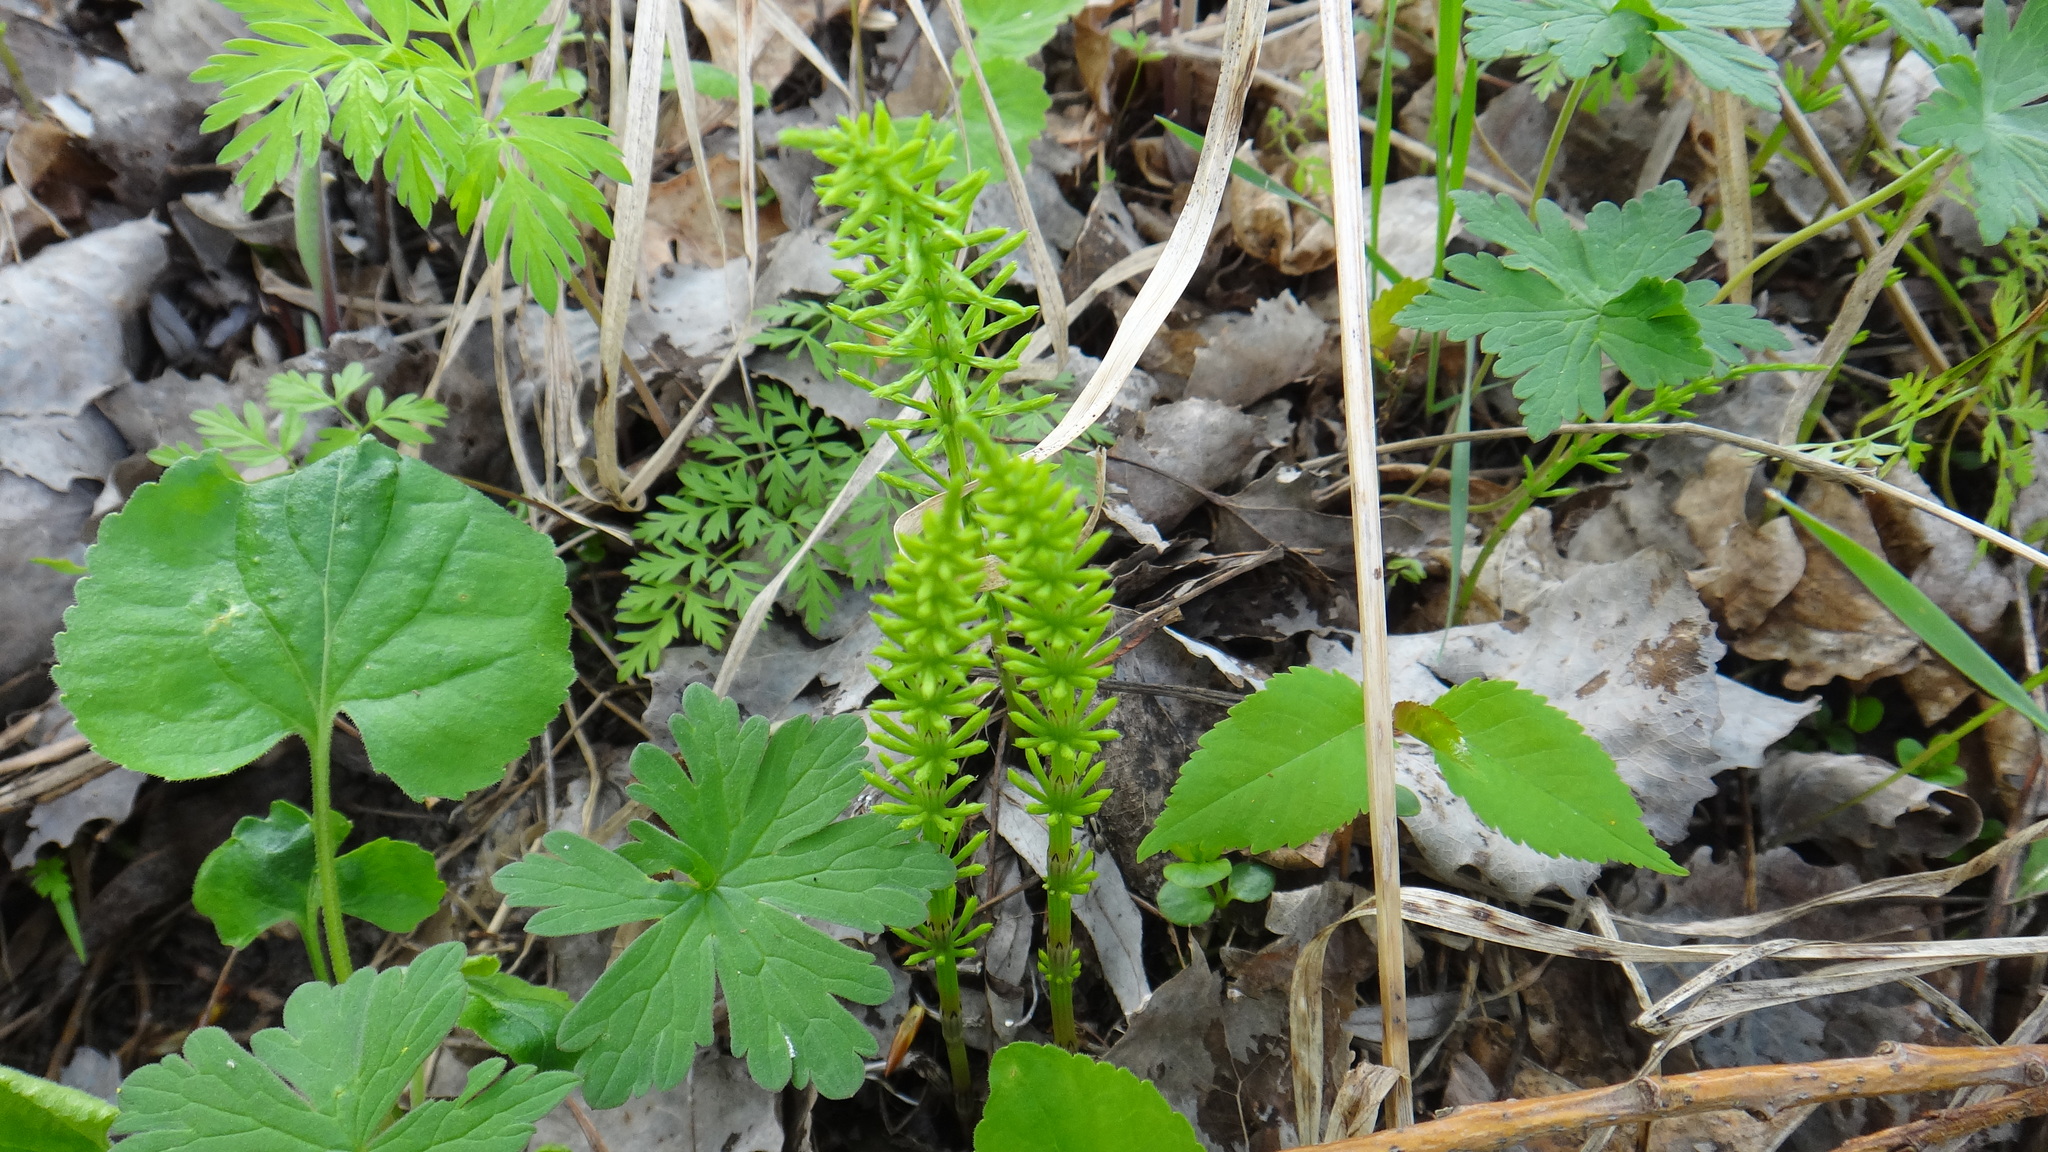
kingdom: Plantae
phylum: Tracheophyta
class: Polypodiopsida
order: Equisetales
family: Equisetaceae
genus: Equisetum
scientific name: Equisetum arvense
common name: Field horsetail
